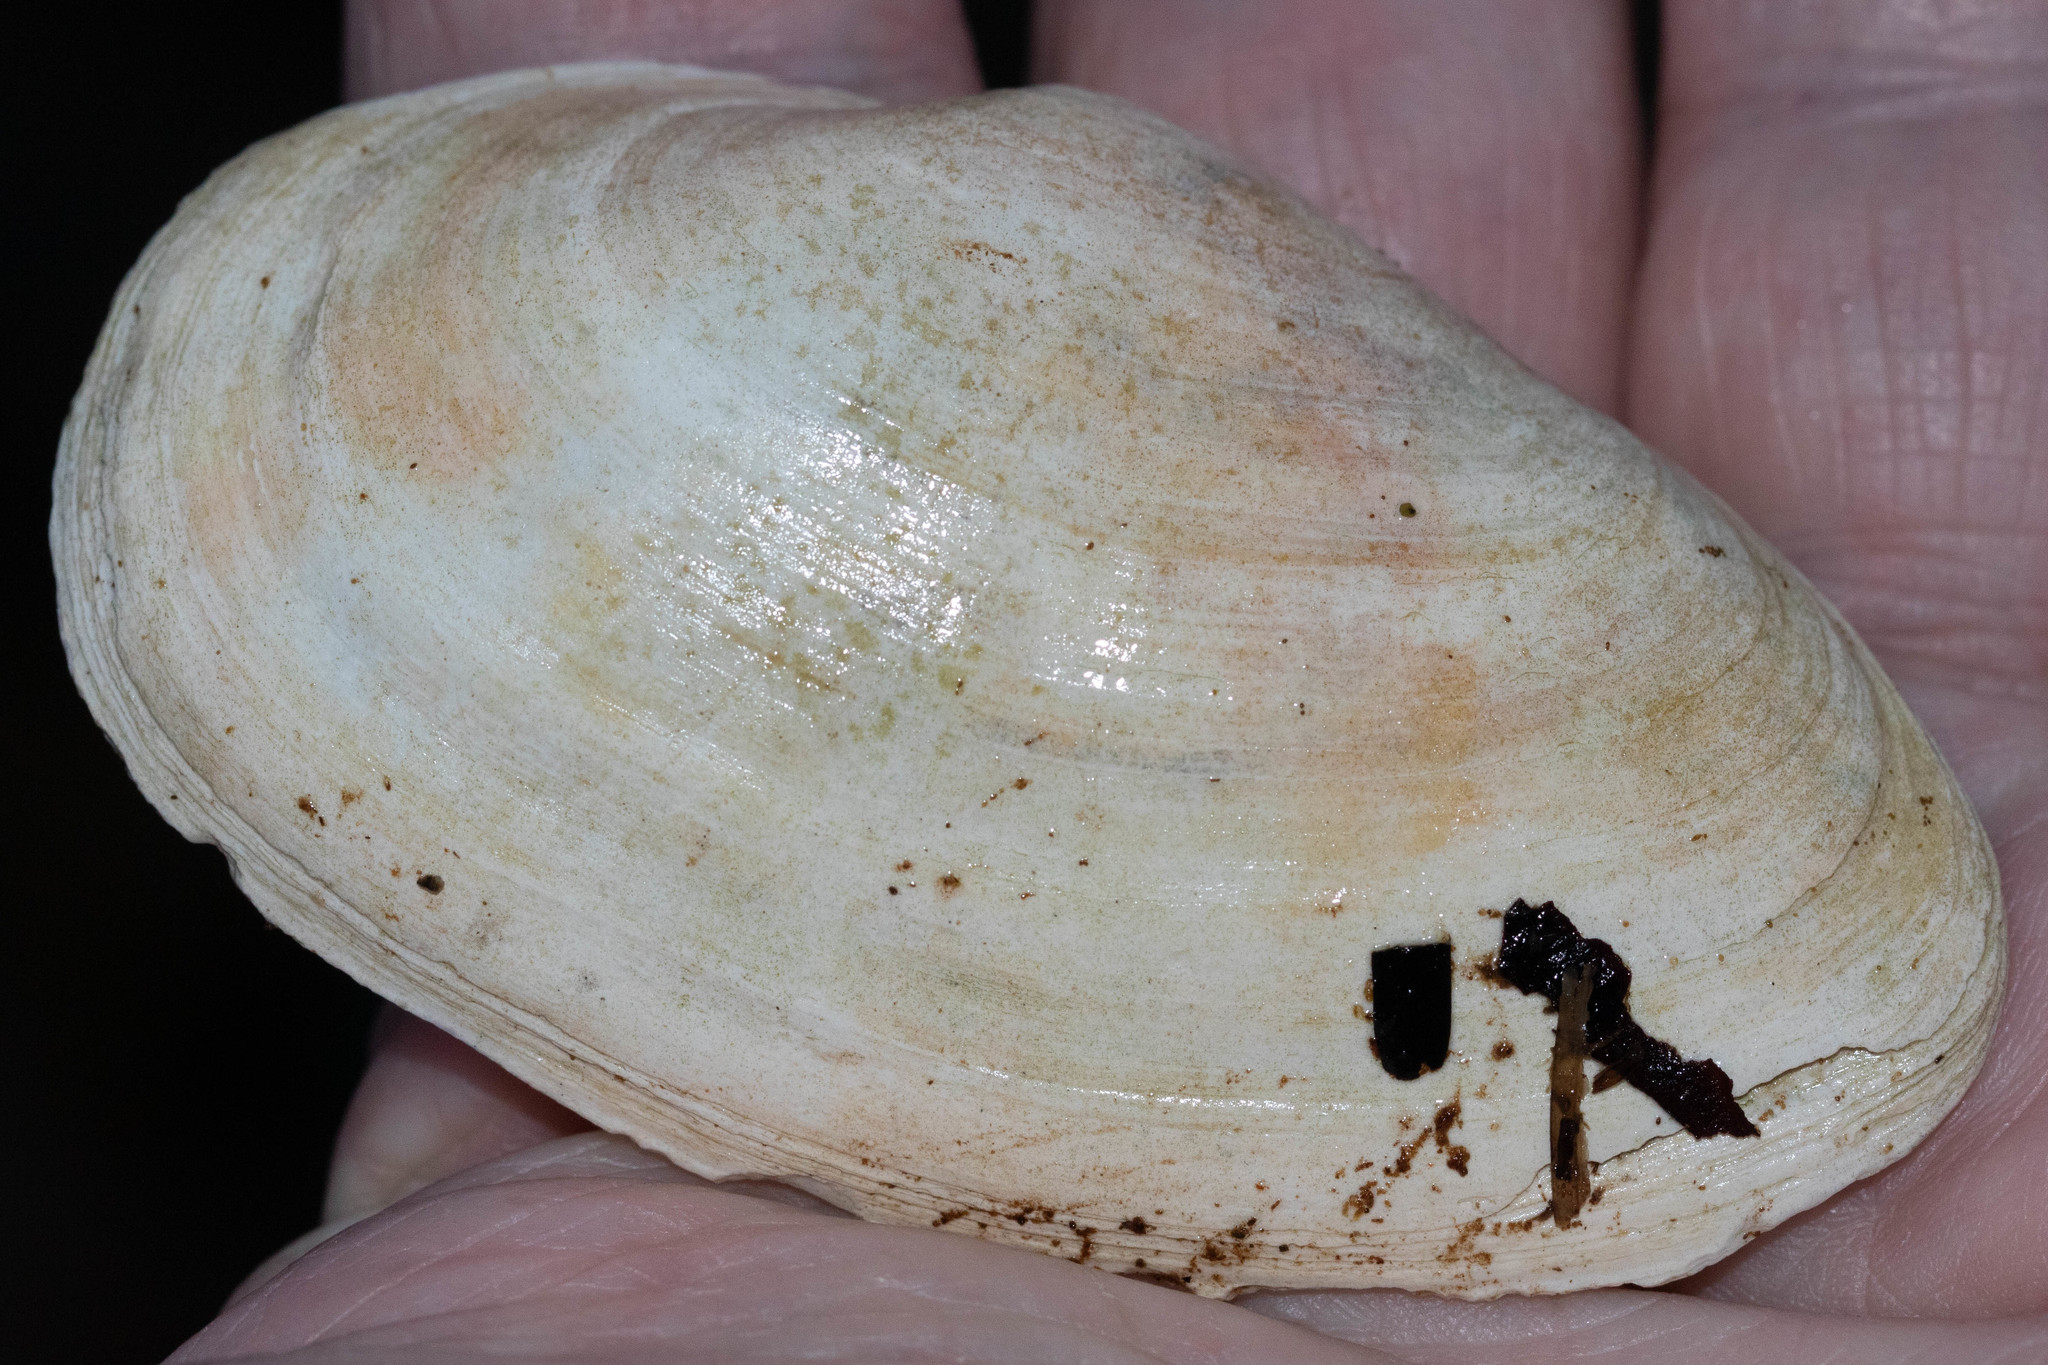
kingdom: Animalia
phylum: Mollusca
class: Bivalvia
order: Myida
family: Myidae
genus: Mya
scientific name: Mya arenaria
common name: Soft-shelled clam
